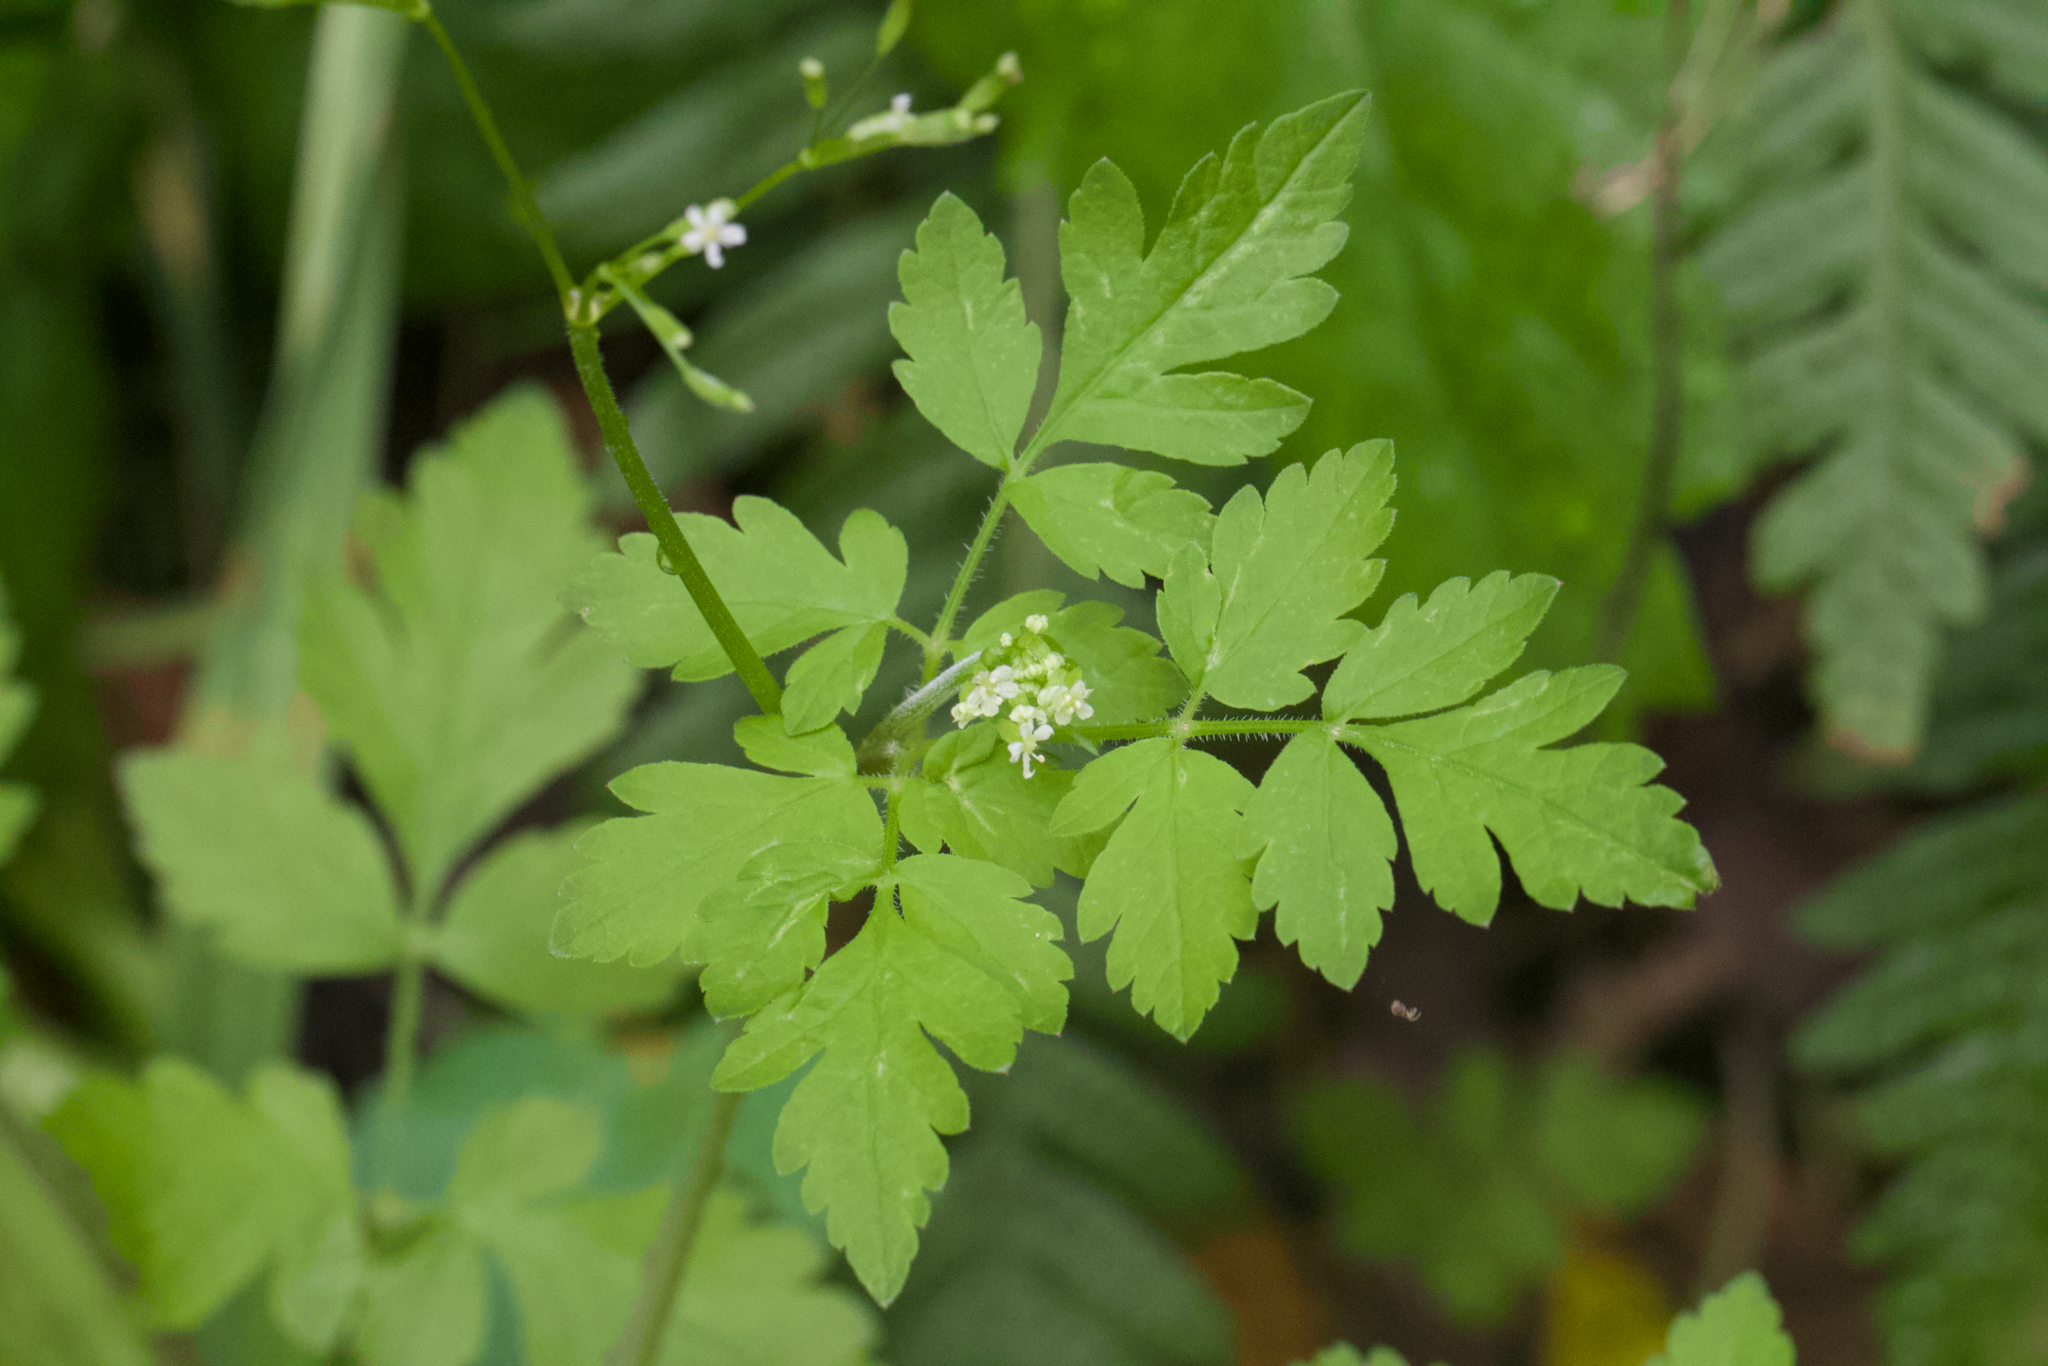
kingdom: Plantae
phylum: Tracheophyta
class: Magnoliopsida
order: Apiales
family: Apiaceae
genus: Osmorhiza
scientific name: Osmorhiza berteroi
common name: Mountain sweet cicely
